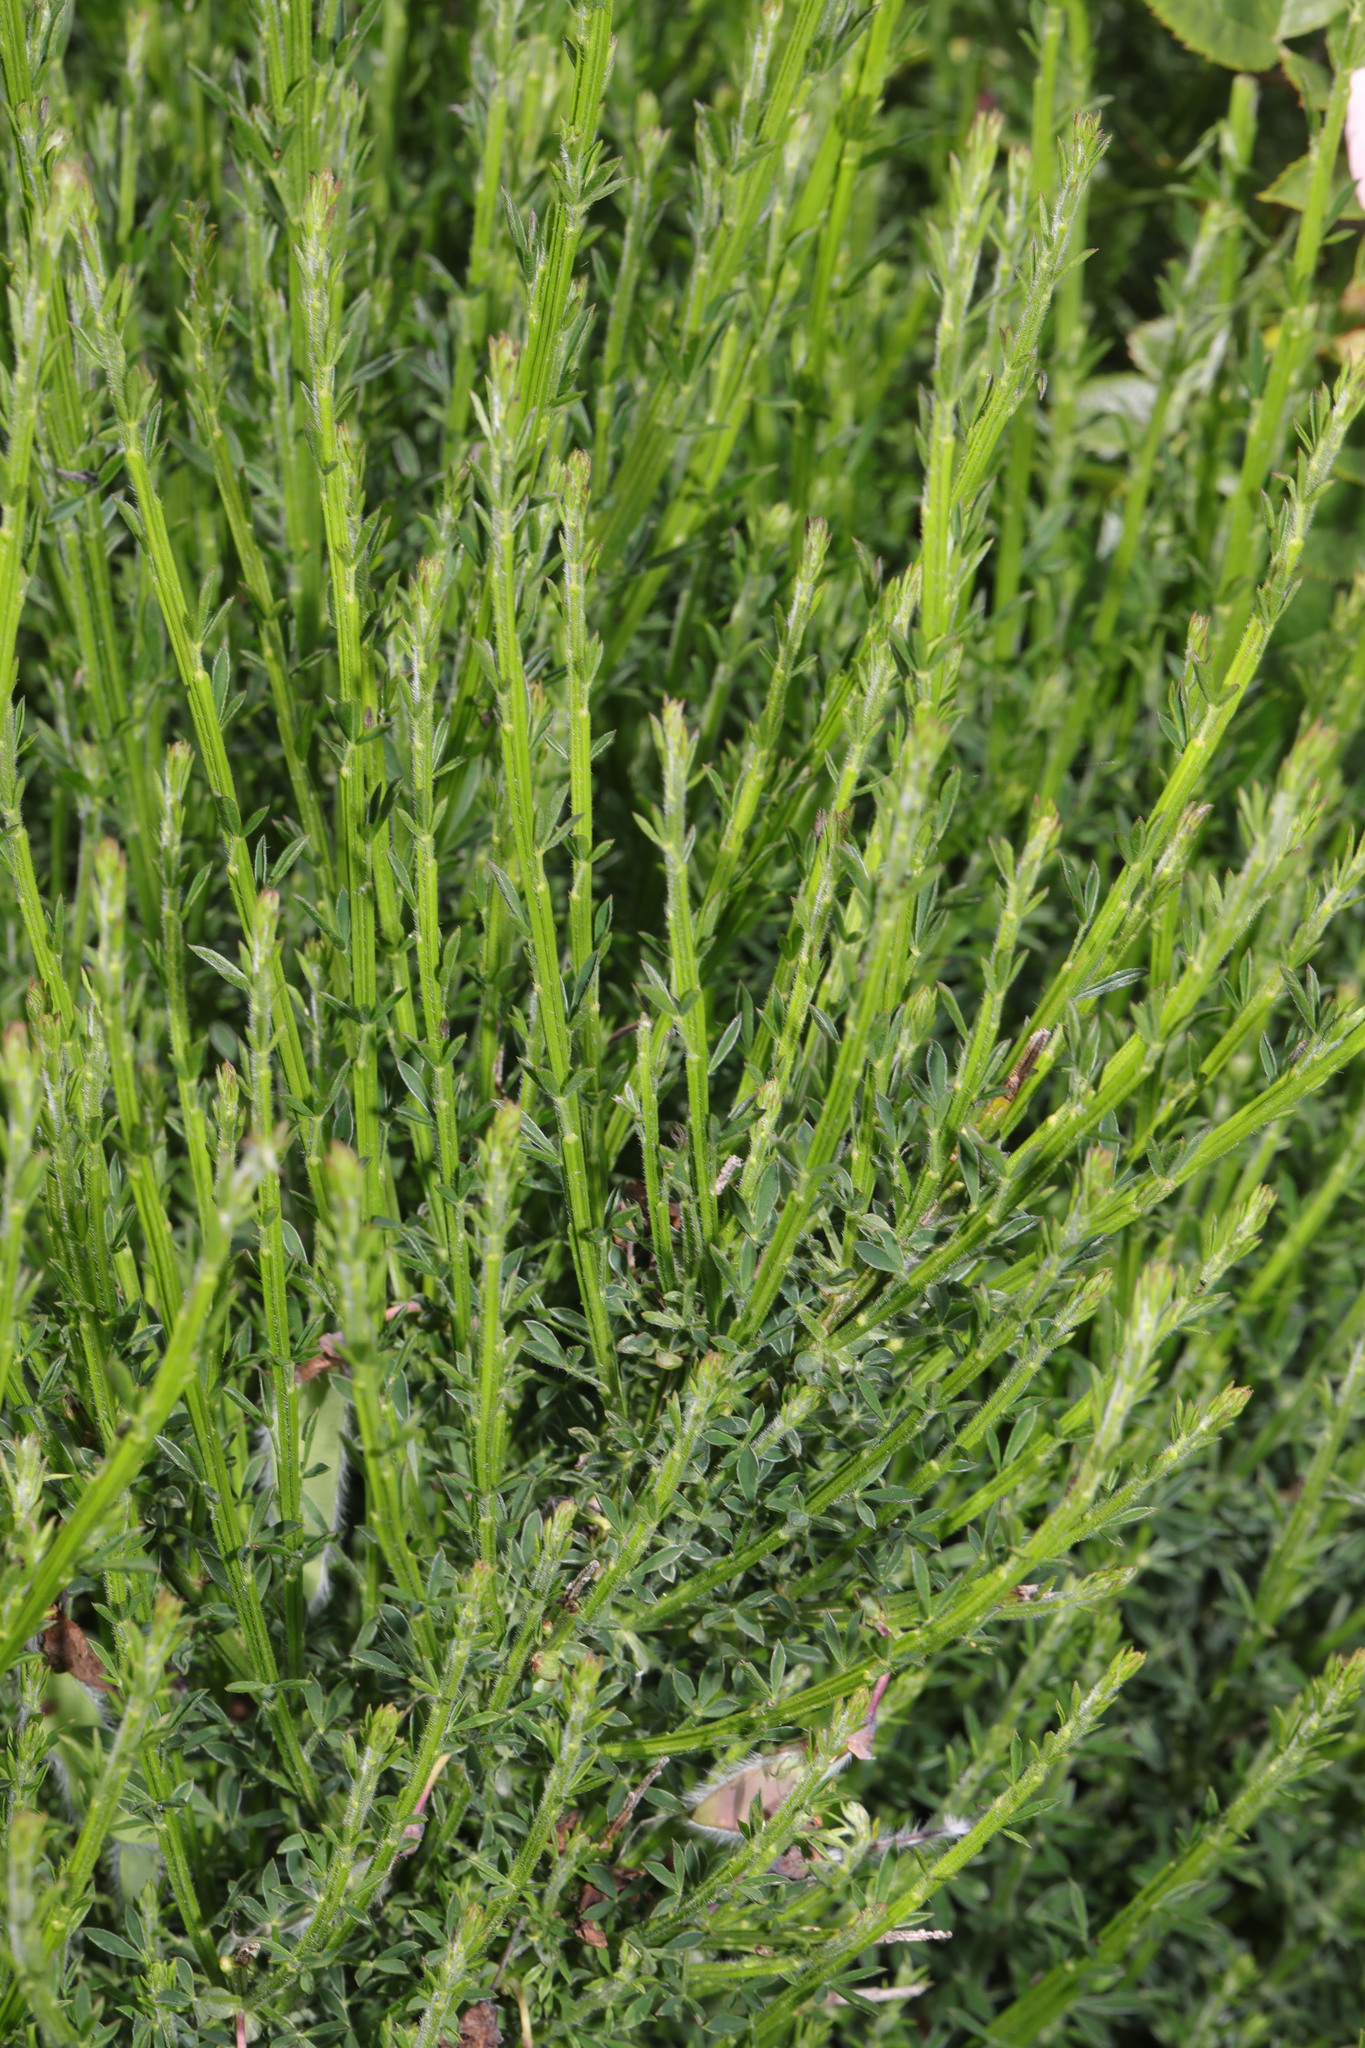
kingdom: Plantae
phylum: Tracheophyta
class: Magnoliopsida
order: Fabales
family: Fabaceae
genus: Cytisus
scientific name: Cytisus scoparius
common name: Scotch broom
